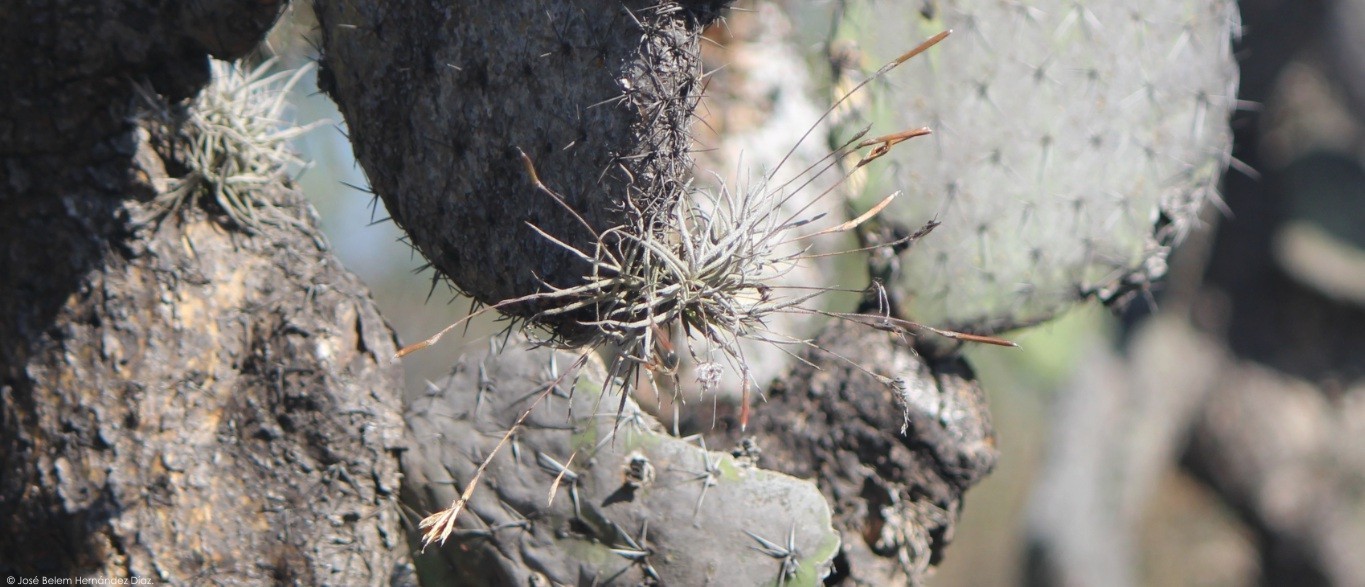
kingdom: Plantae
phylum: Tracheophyta
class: Liliopsida
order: Poales
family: Bromeliaceae
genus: Tillandsia
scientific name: Tillandsia recurvata
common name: Small ballmoss
